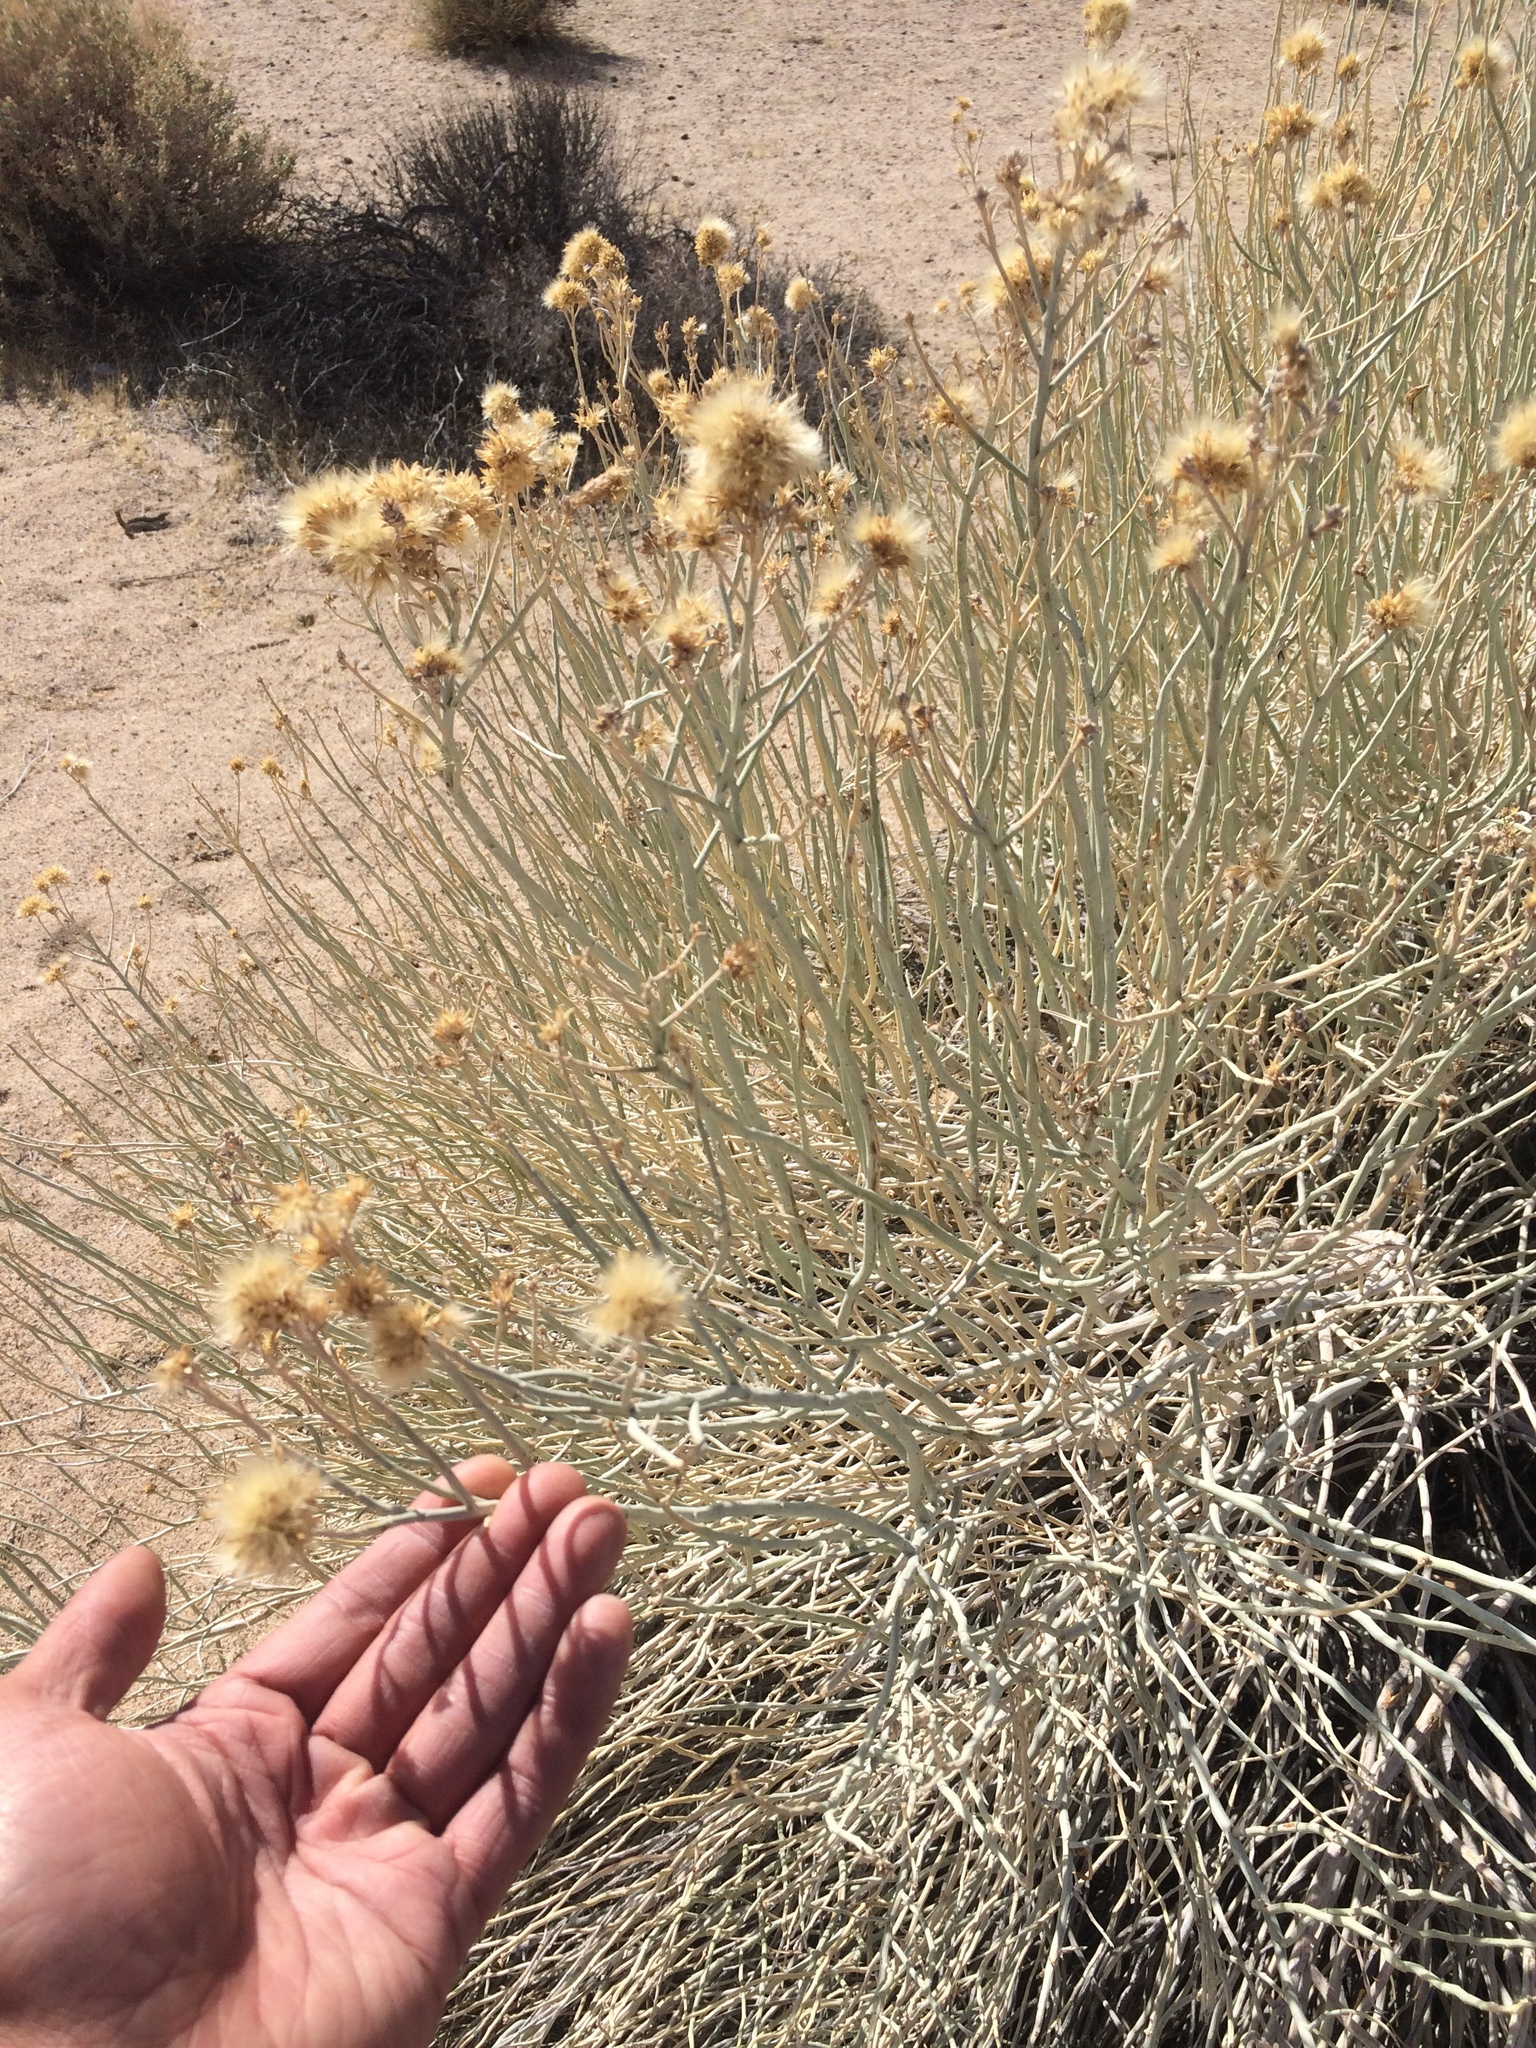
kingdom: Plantae
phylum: Tracheophyta
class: Magnoliopsida
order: Asterales
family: Asteraceae
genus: Ericameria
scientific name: Ericameria nauseosa
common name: Rubber rabbitbrush
